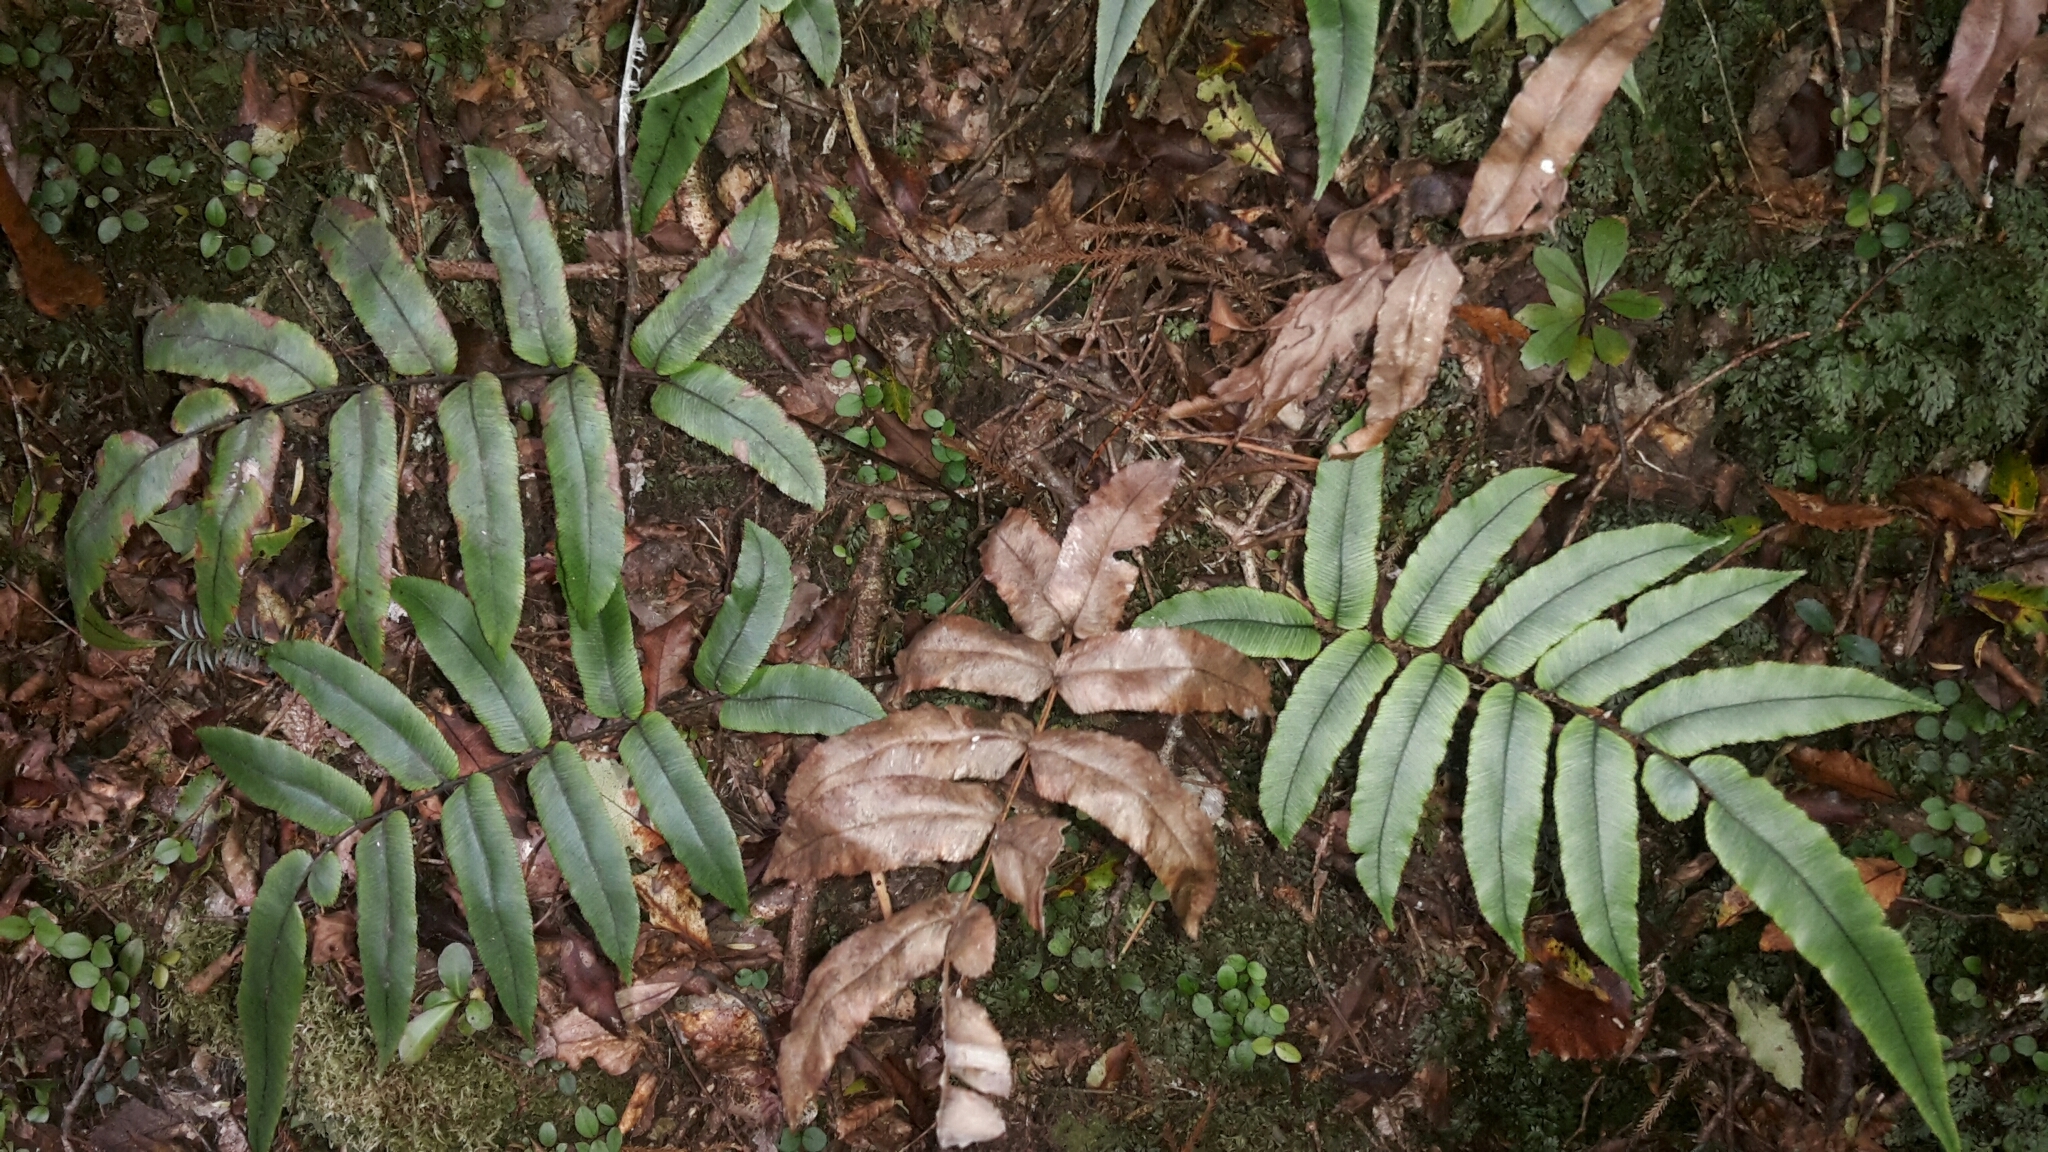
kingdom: Plantae
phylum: Tracheophyta
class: Polypodiopsida
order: Polypodiales
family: Blechnaceae
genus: Parablechnum
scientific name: Parablechnum procerum
